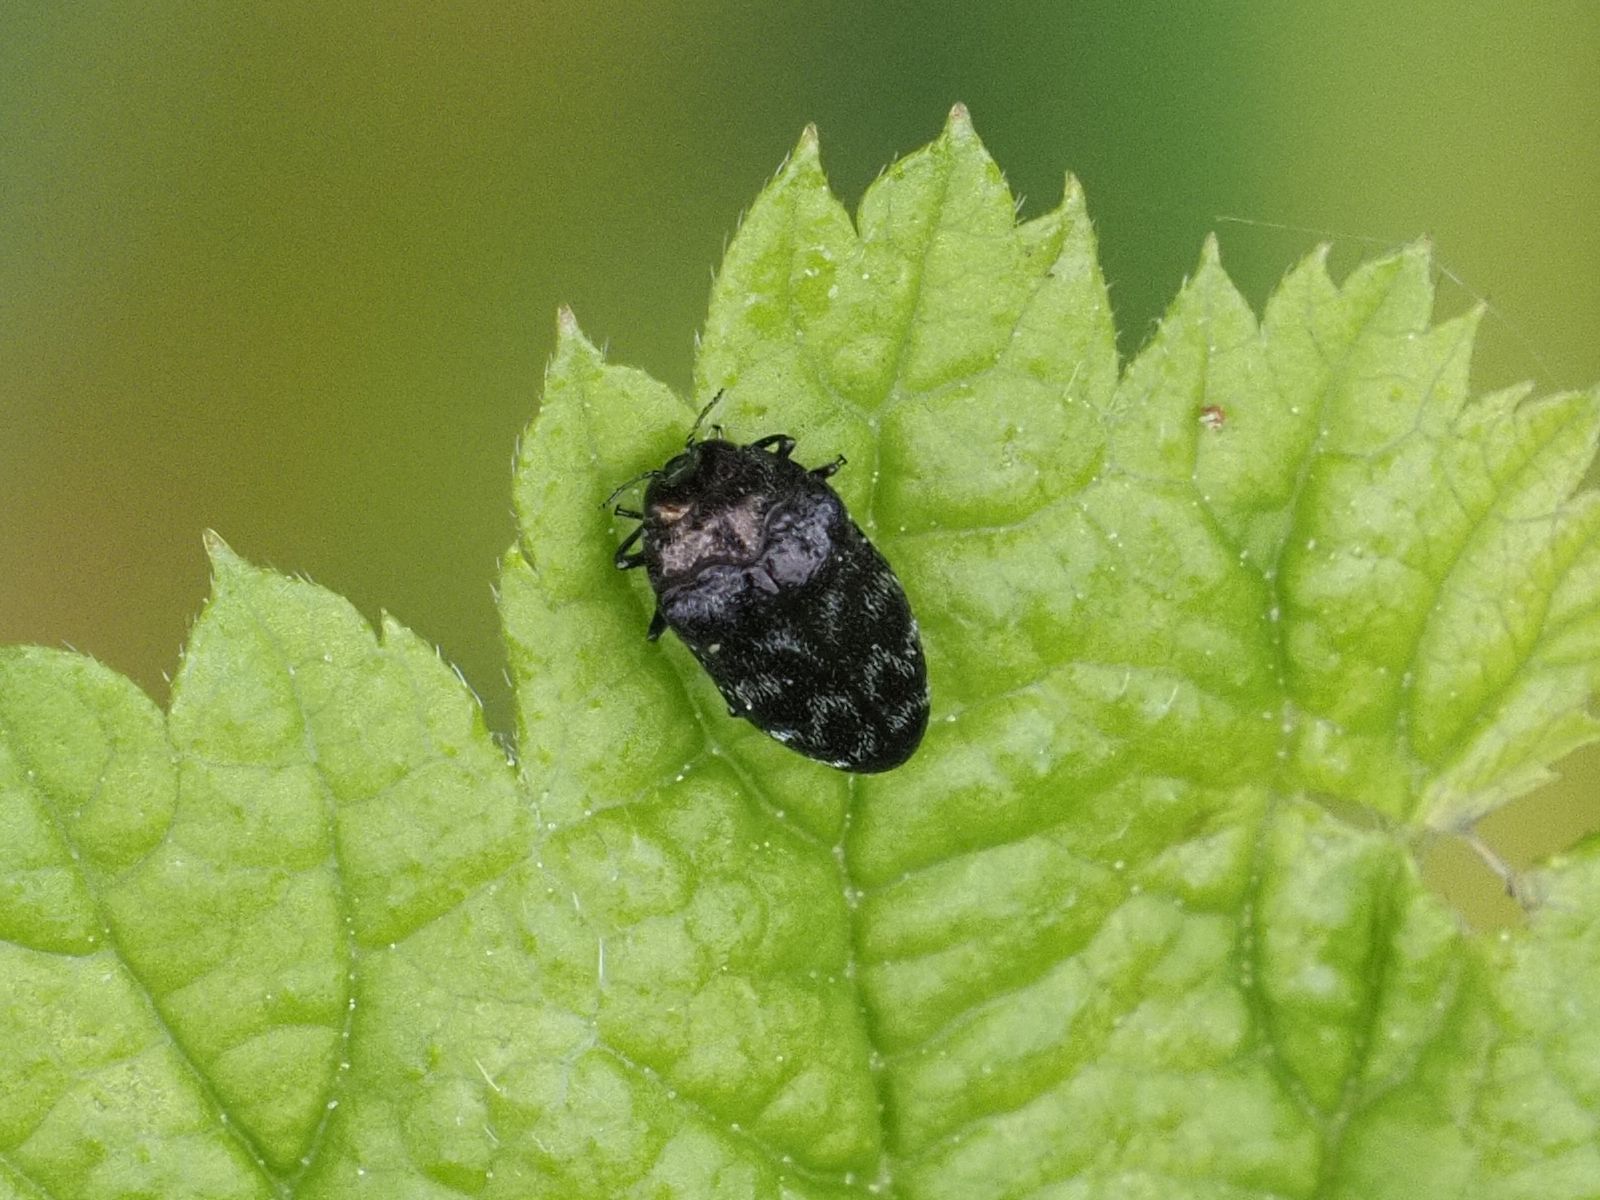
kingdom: Animalia
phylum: Arthropoda
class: Insecta
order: Coleoptera
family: Buprestidae
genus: Trachys
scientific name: Trachys minutus
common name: Metallic wood-boring beetle
